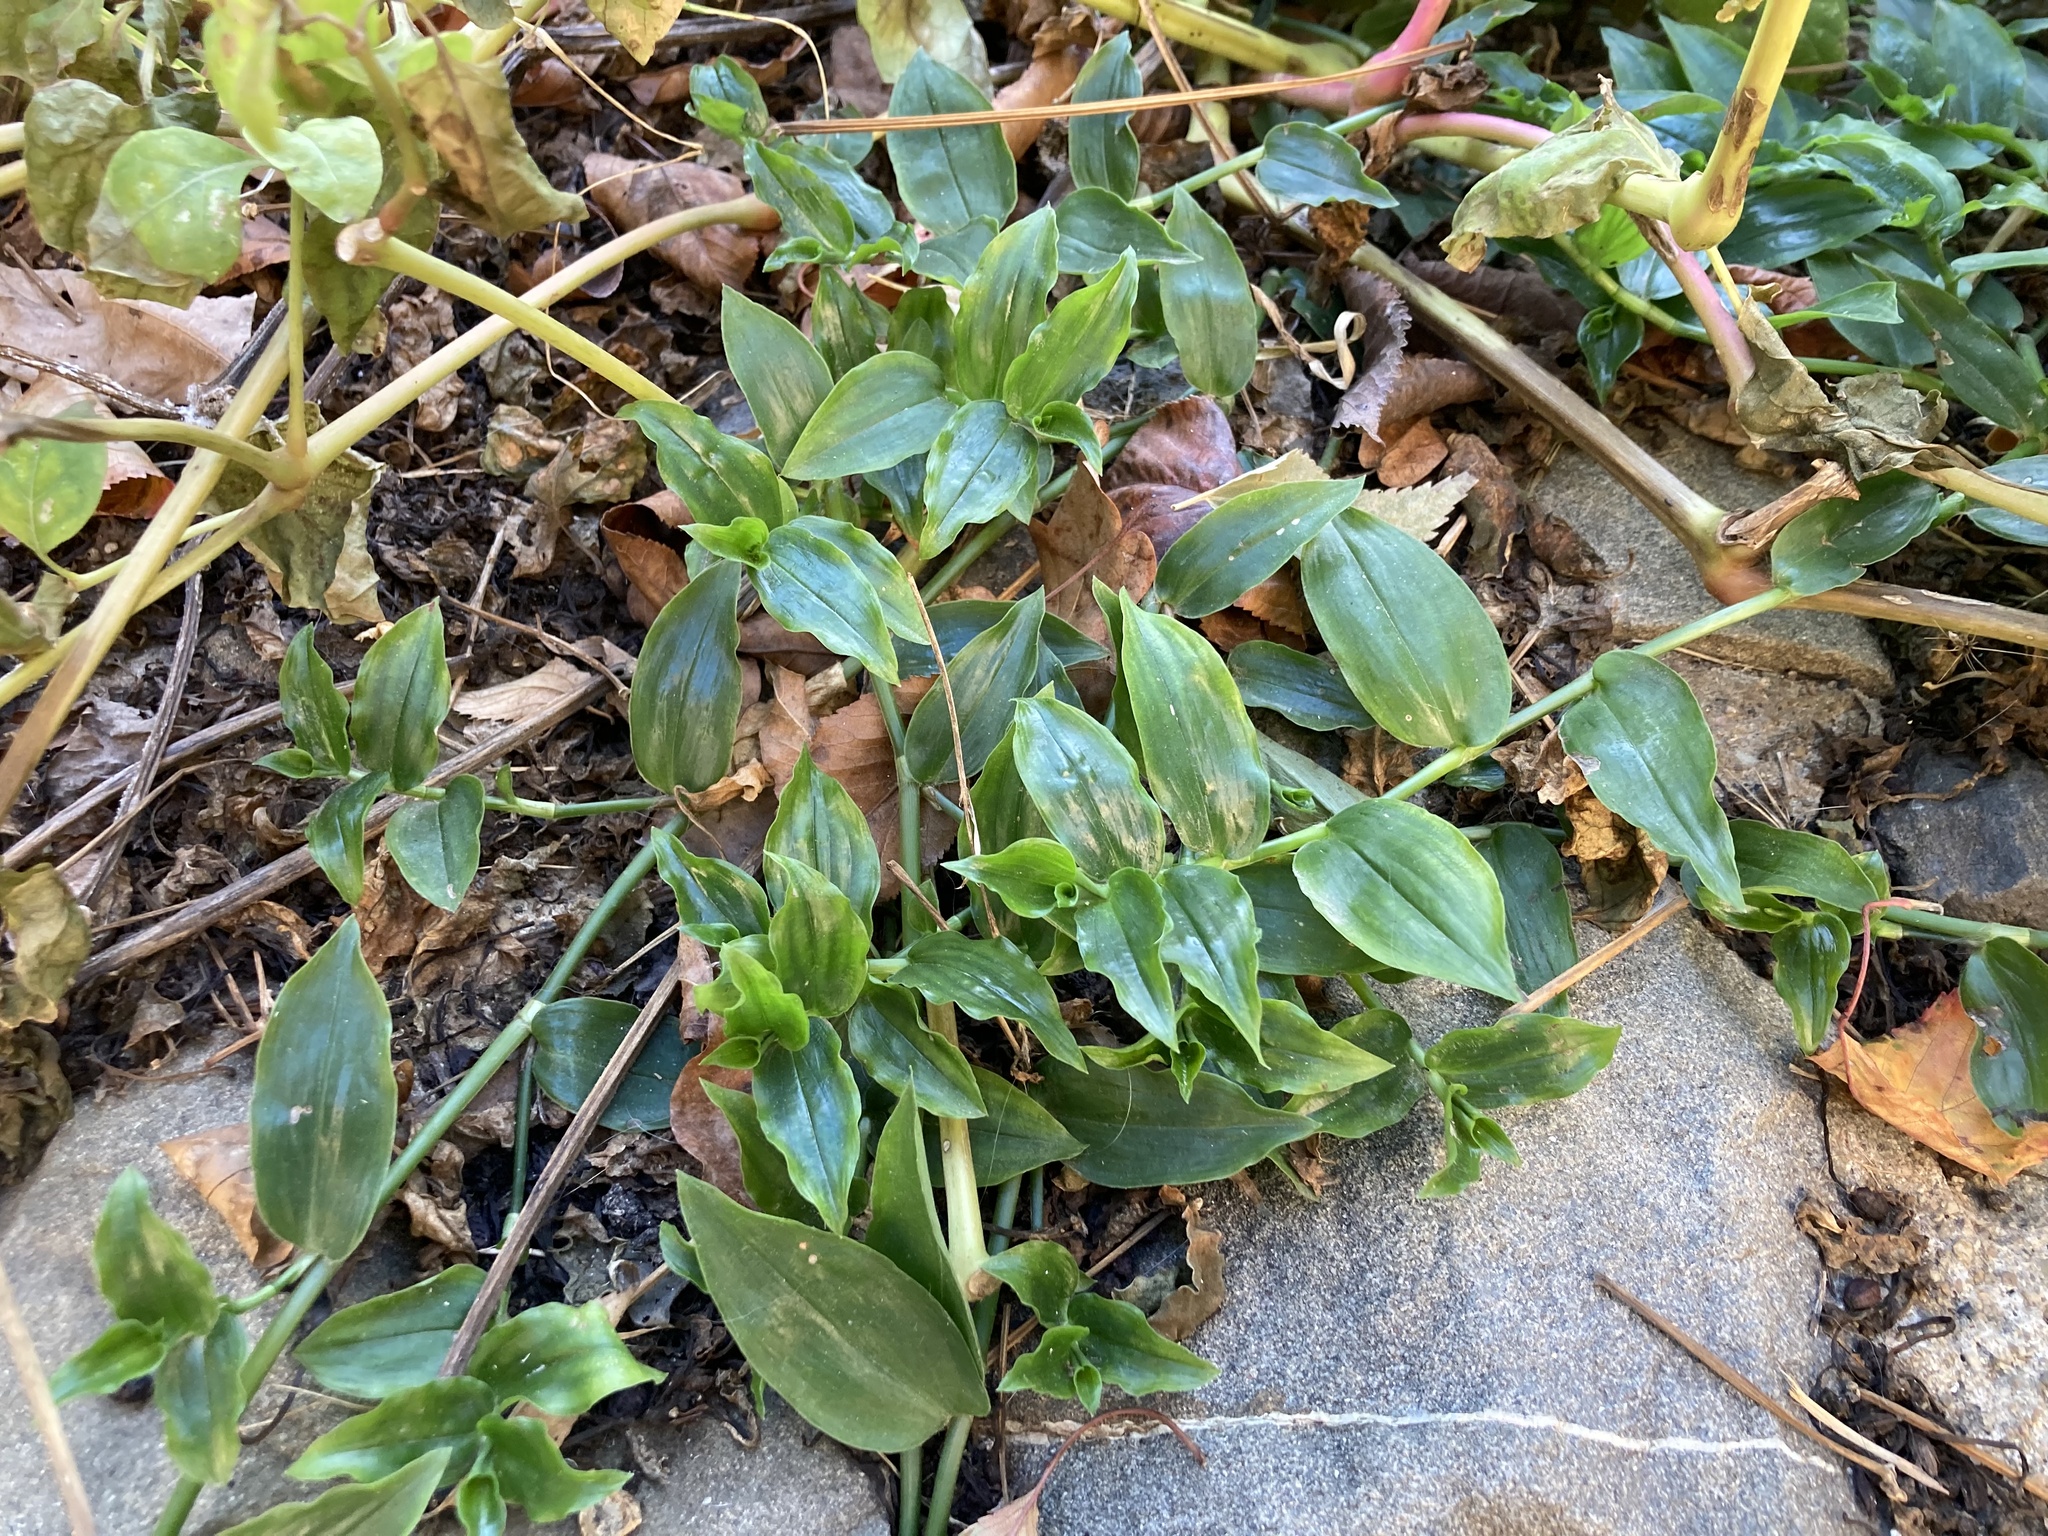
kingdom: Plantae
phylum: Tracheophyta
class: Liliopsida
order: Commelinales
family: Commelinaceae
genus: Tradescantia
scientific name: Tradescantia fluminensis
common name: Wandering-jew
